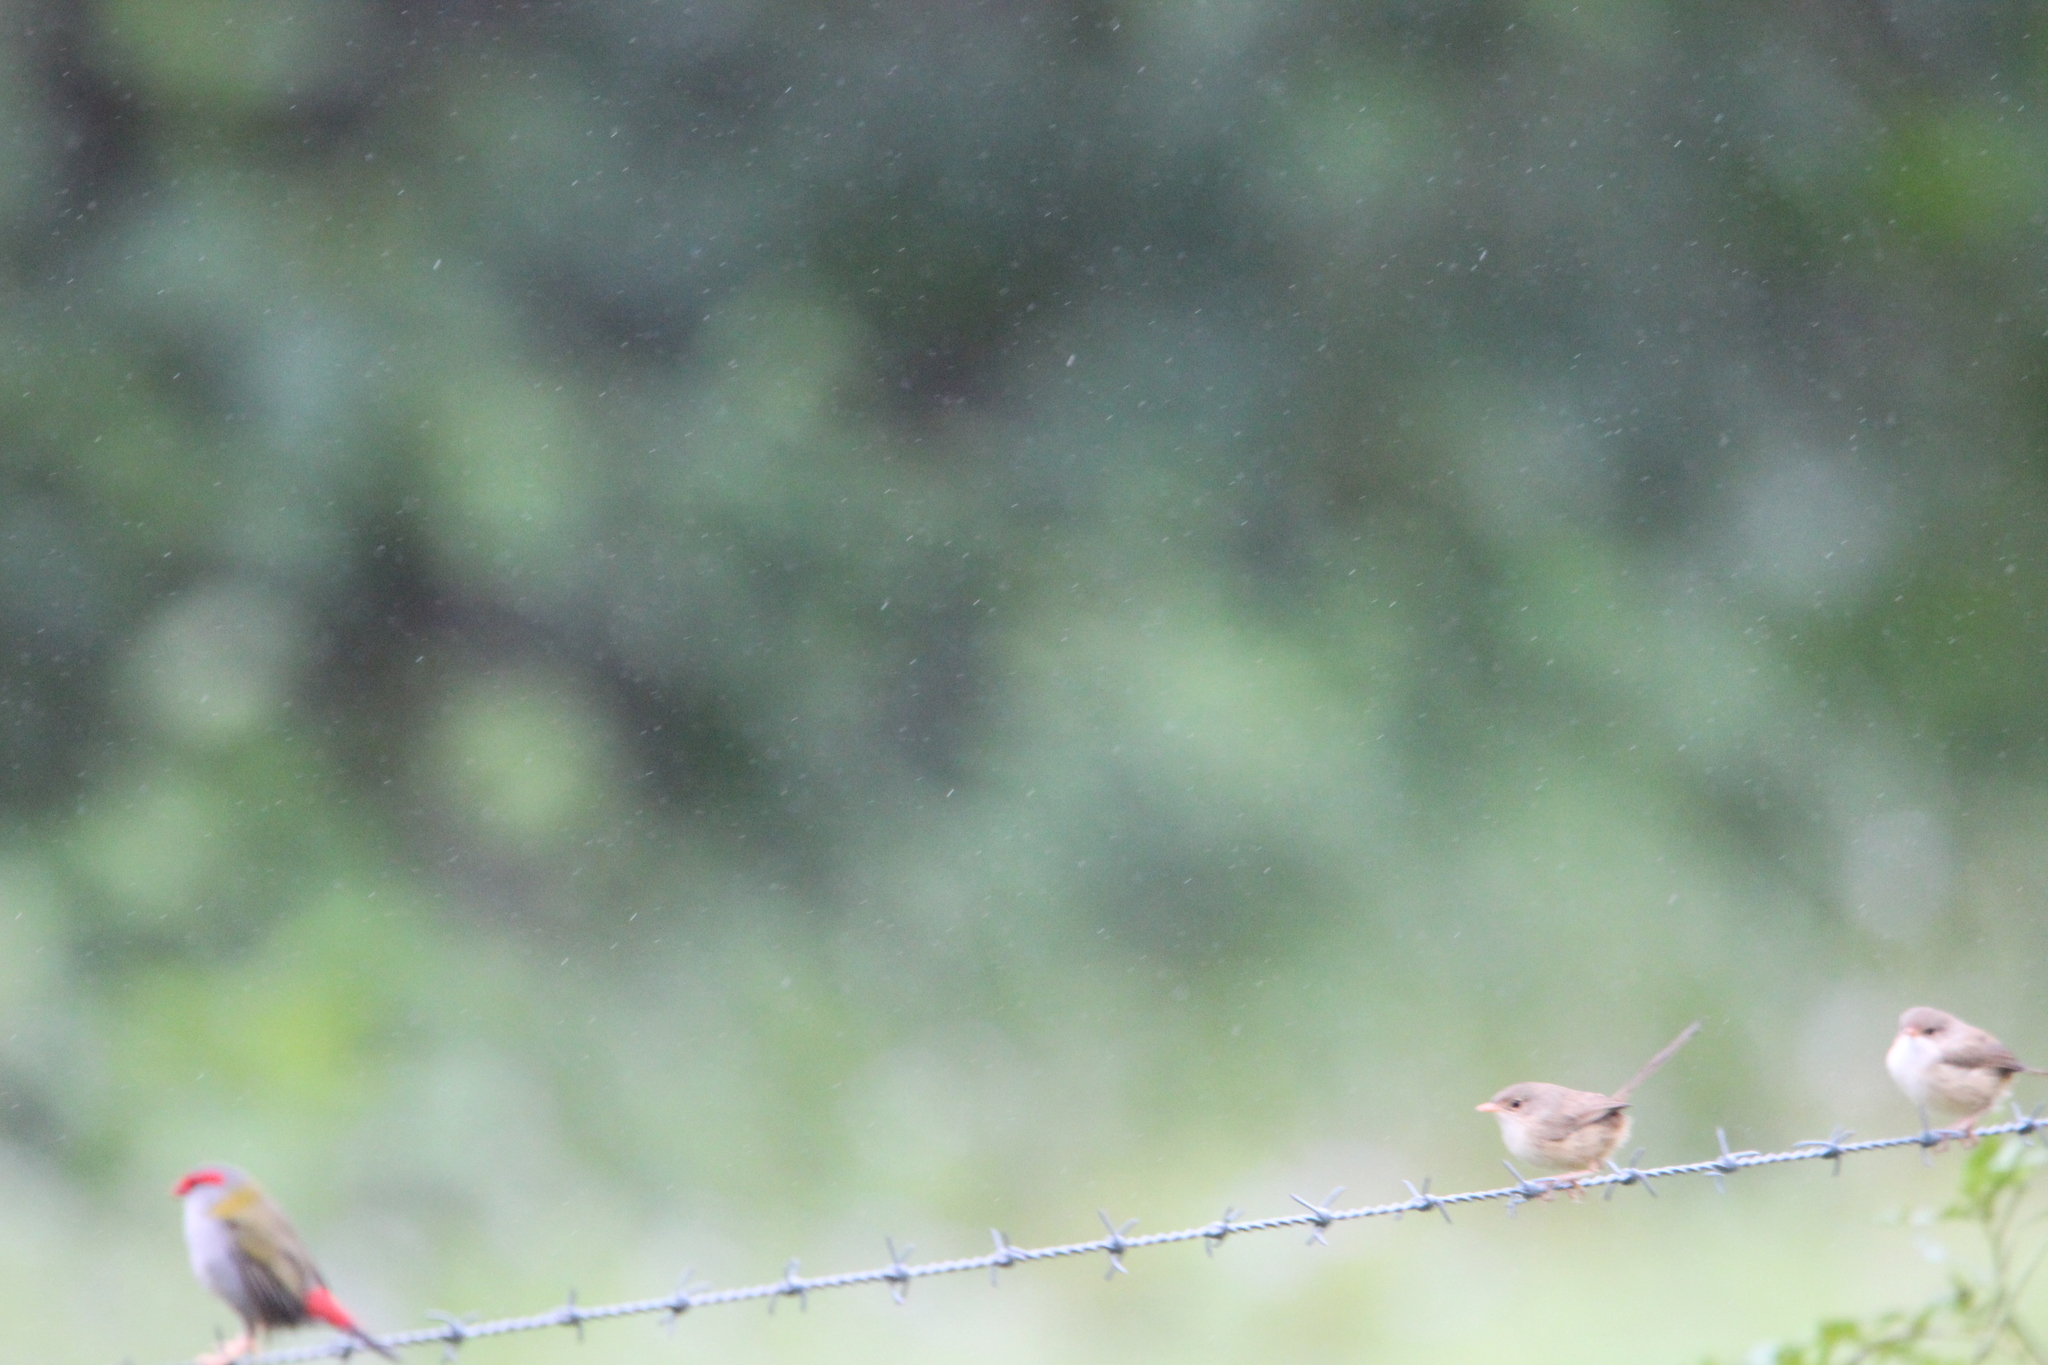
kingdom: Animalia
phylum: Chordata
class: Aves
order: Passeriformes
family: Maluridae
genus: Malurus
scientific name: Malurus melanocephalus
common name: Red-backed fairywren
